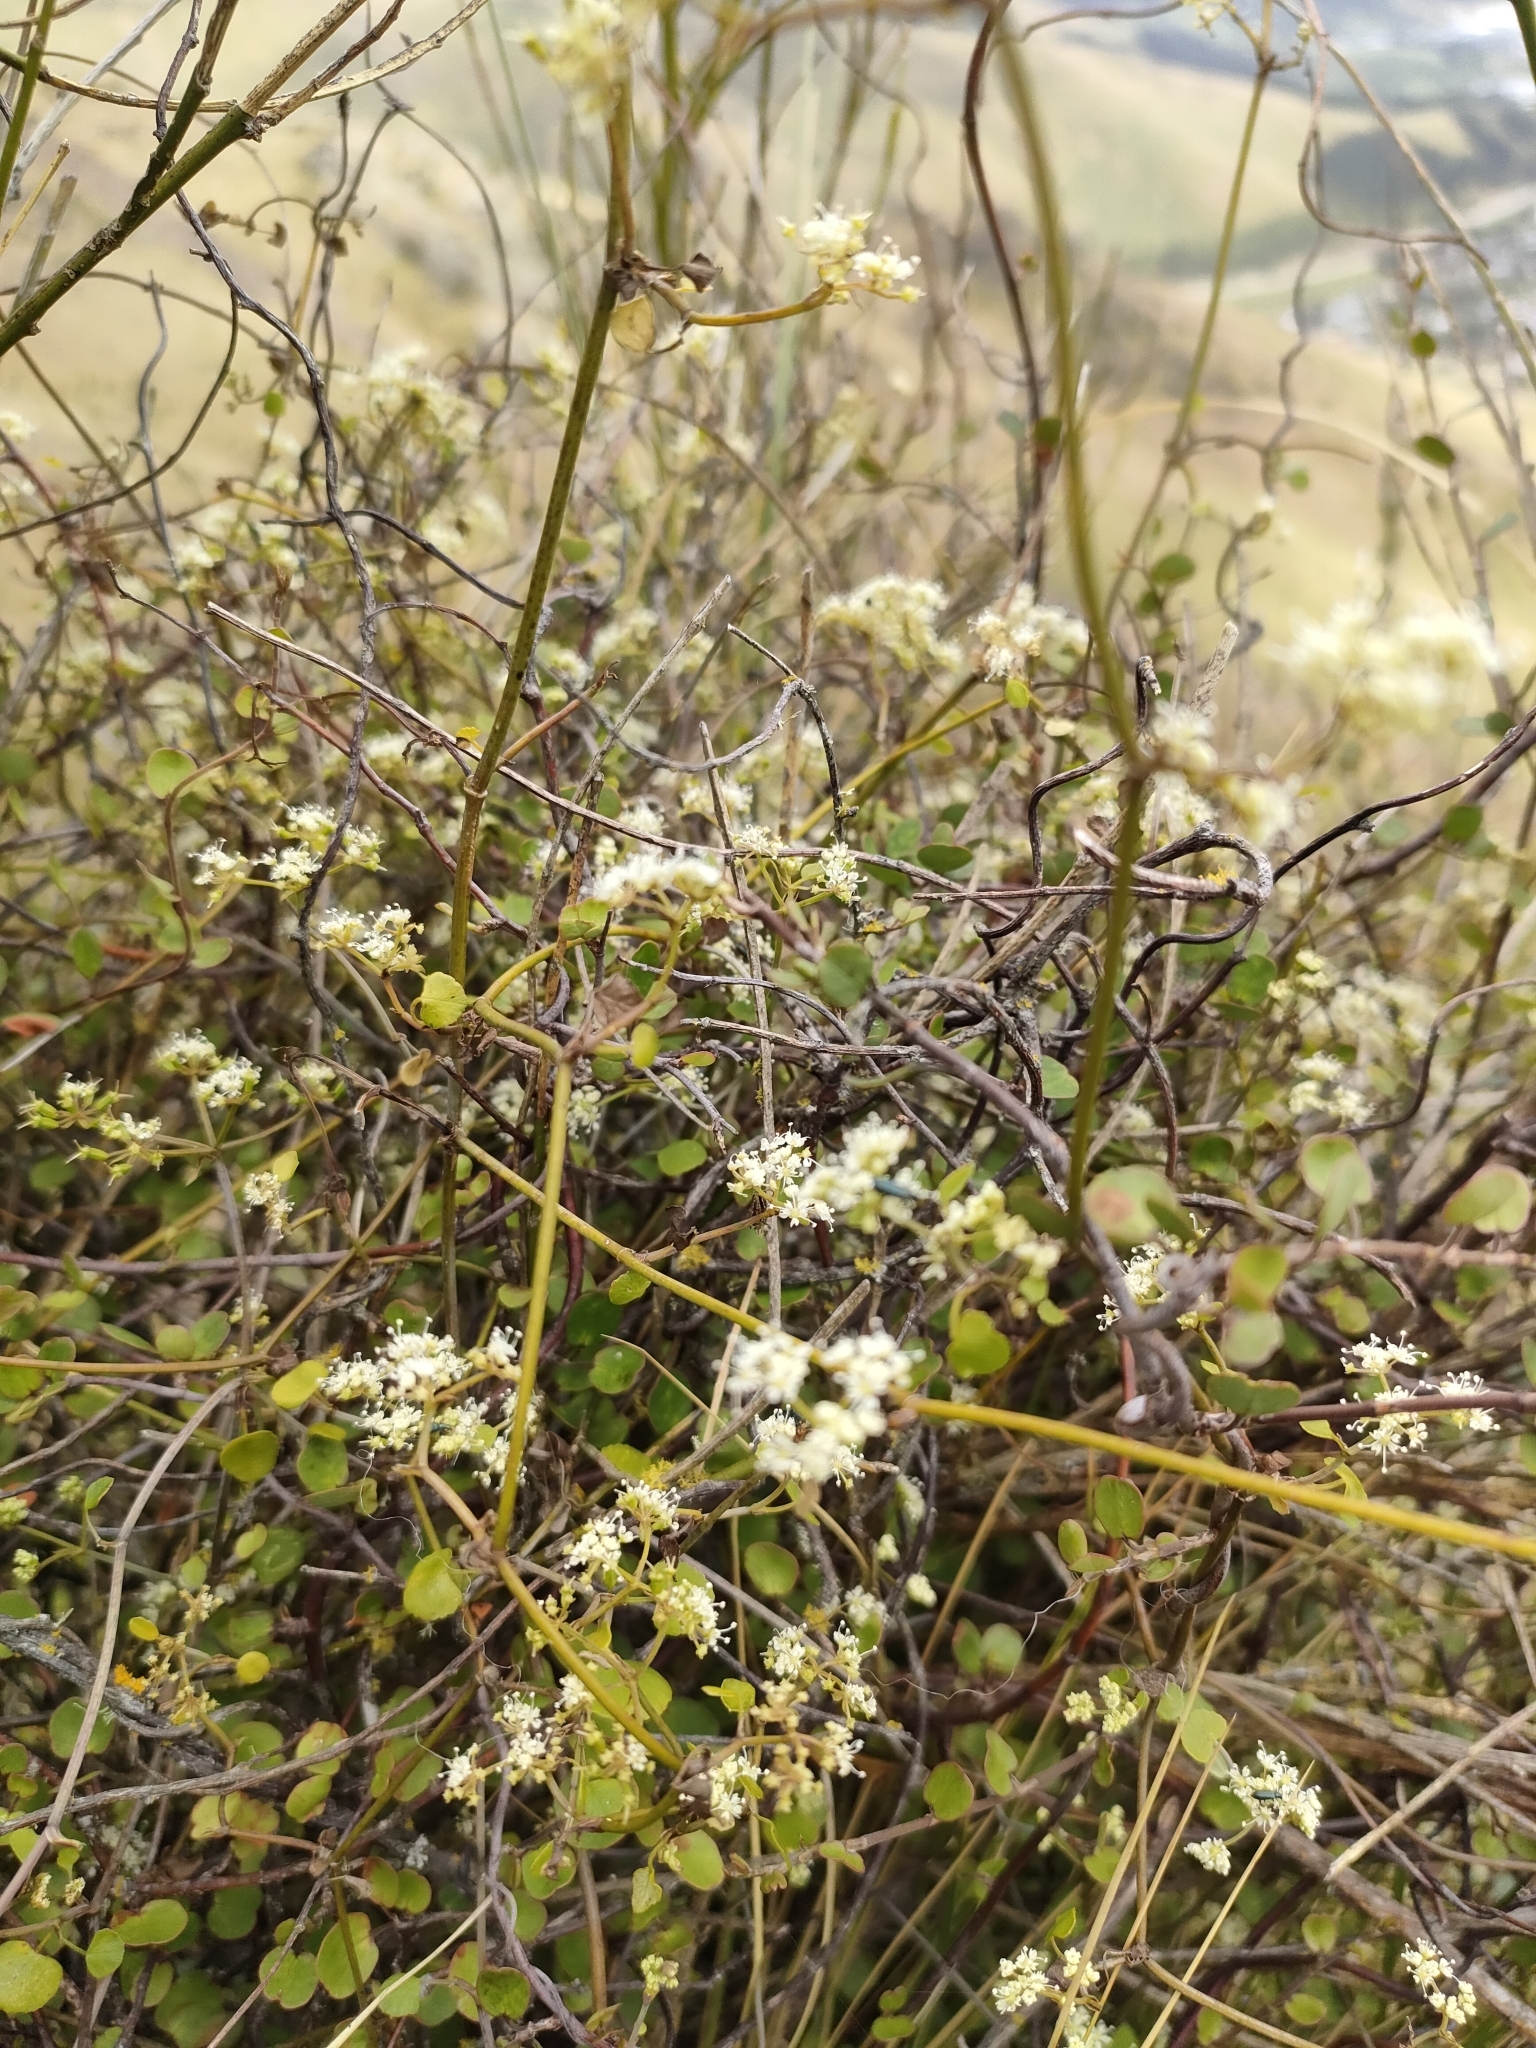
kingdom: Plantae
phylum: Tracheophyta
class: Magnoliopsida
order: Apiales
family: Apiaceae
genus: Scandia
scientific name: Scandia geniculata
